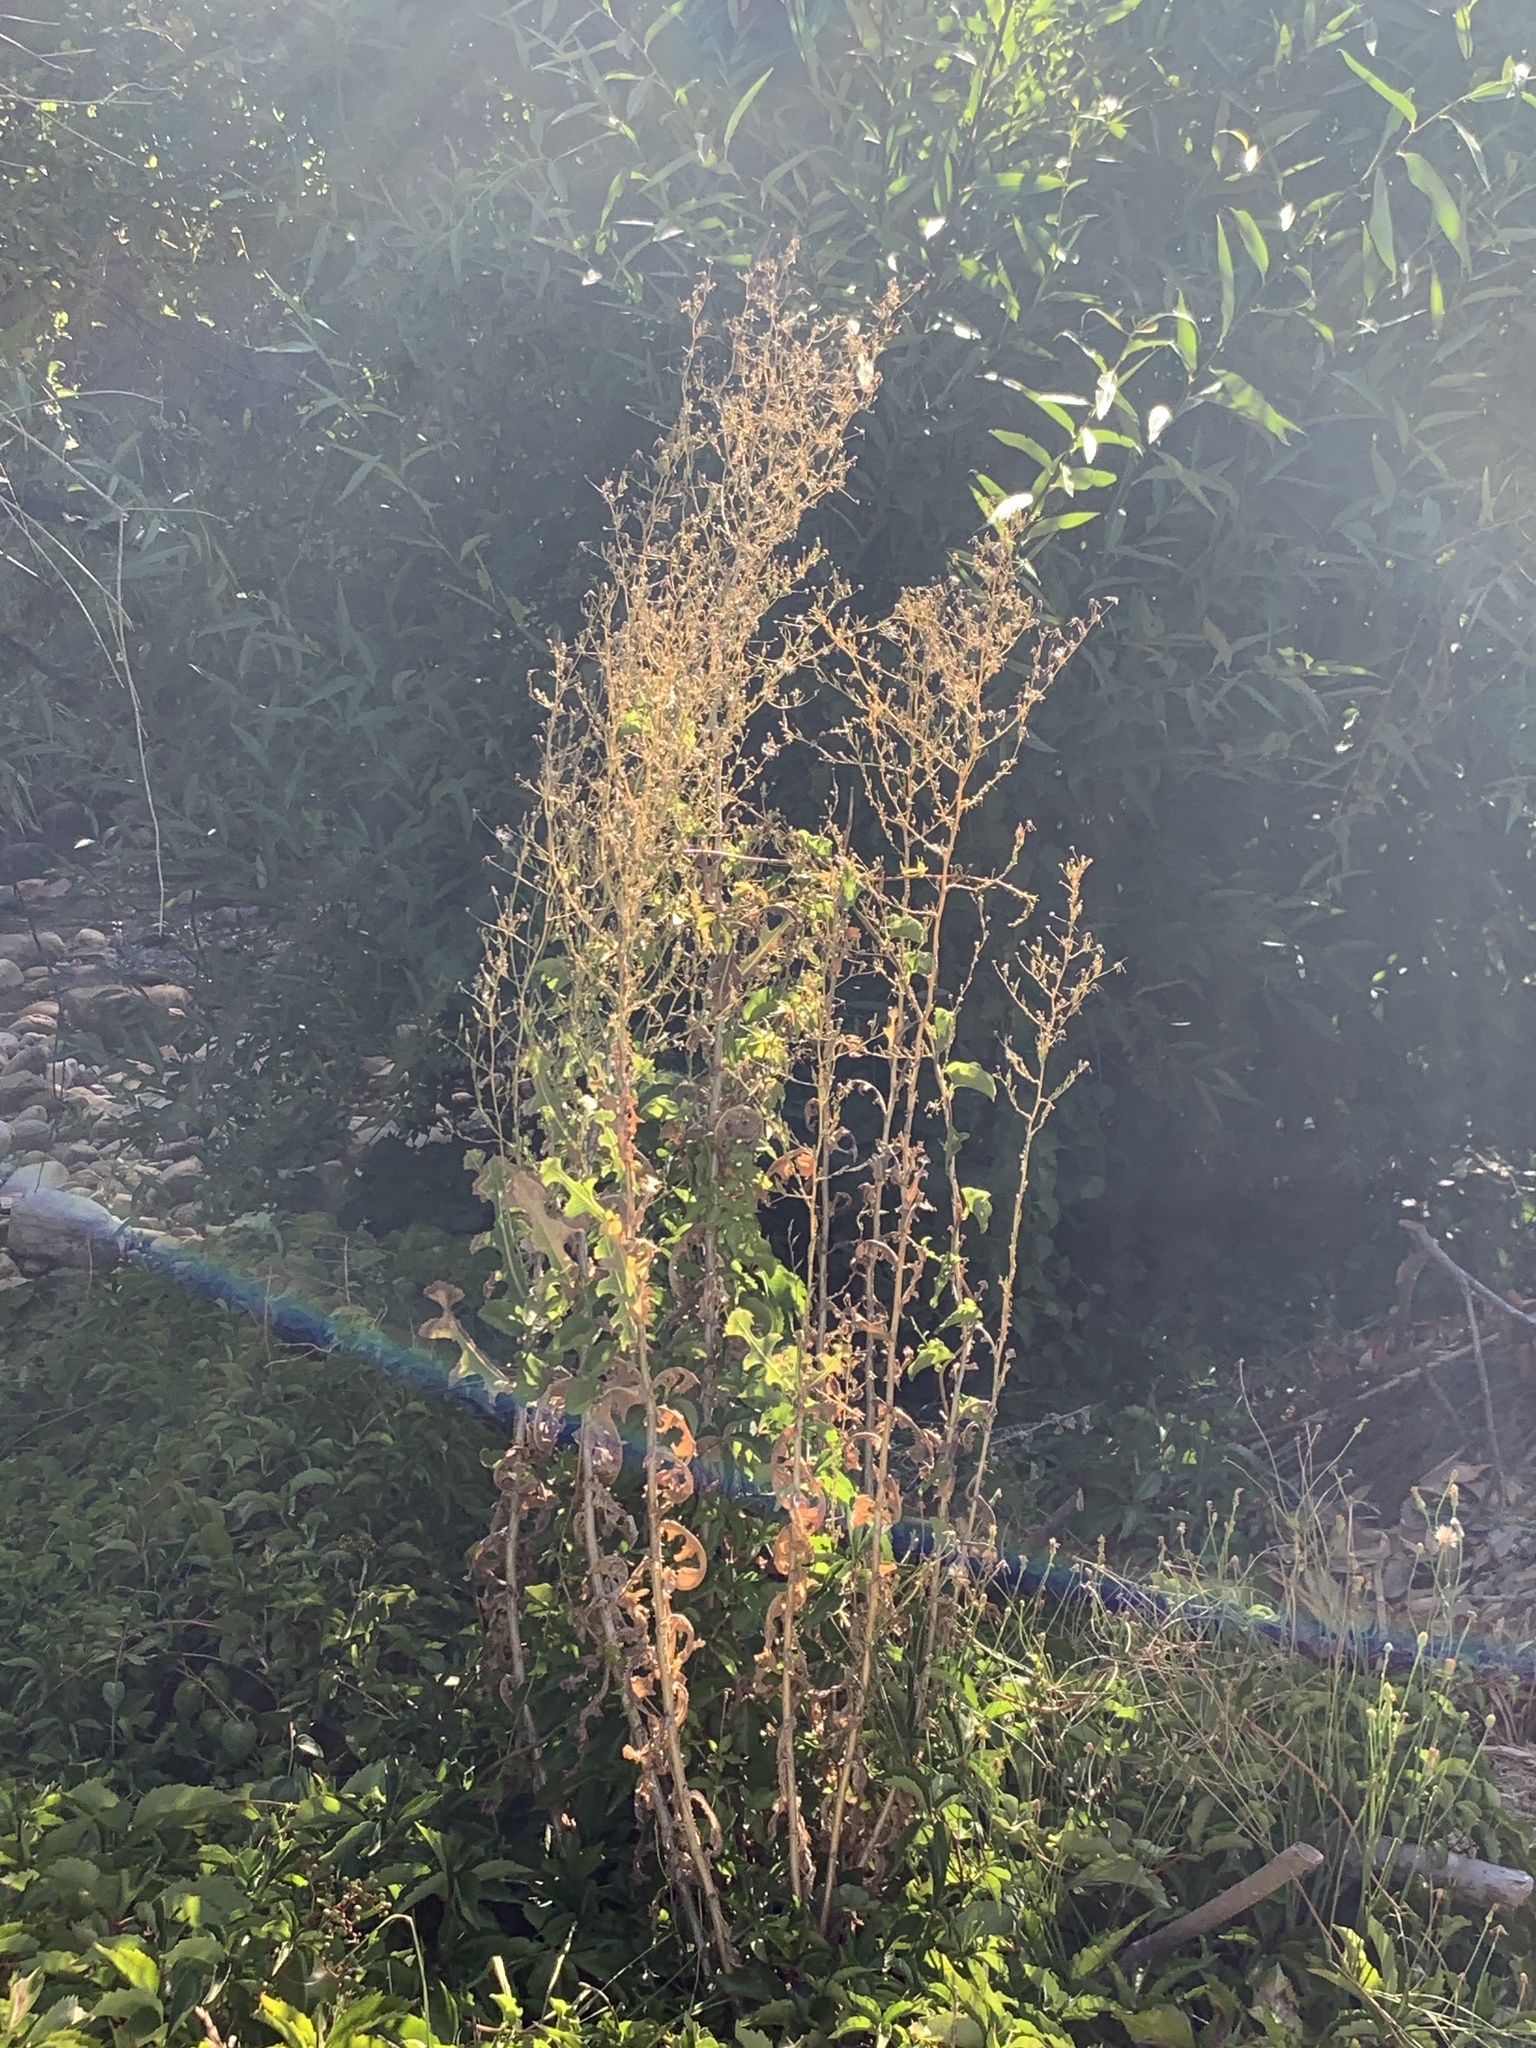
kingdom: Plantae
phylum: Tracheophyta
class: Magnoliopsida
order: Asterales
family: Asteraceae
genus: Lactuca
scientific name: Lactuca serriola
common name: Prickly lettuce
